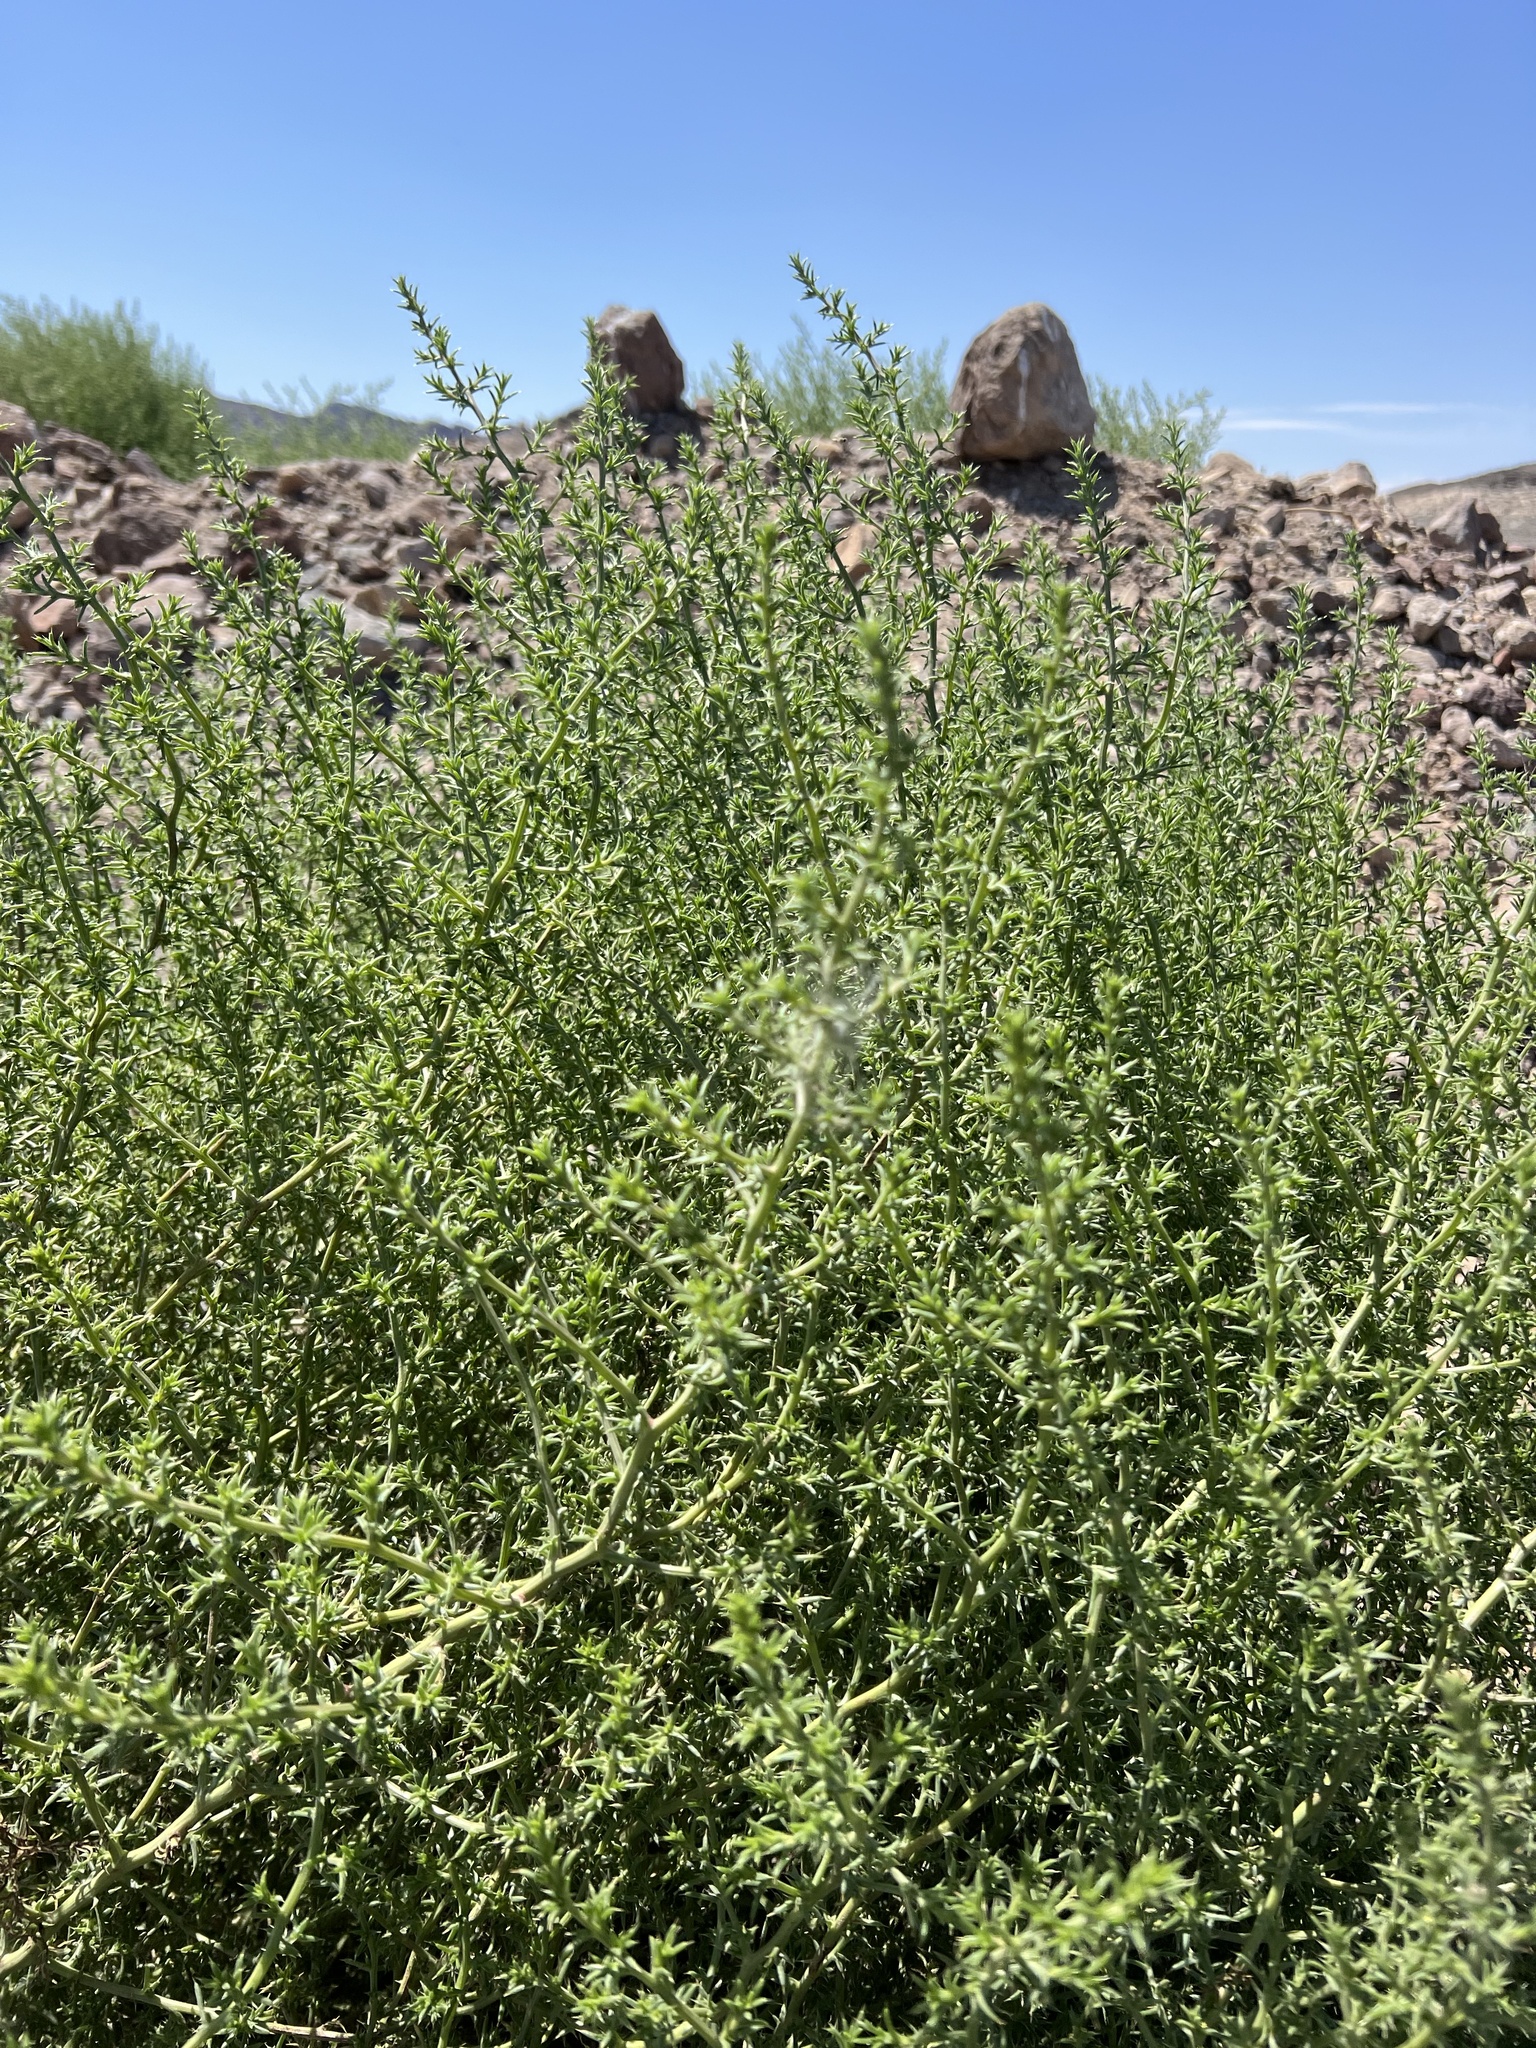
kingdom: Plantae
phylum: Tracheophyta
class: Magnoliopsida
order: Caryophyllales
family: Amaranthaceae
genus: Salsola
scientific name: Salsola tragus
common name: Prickly russian thistle
